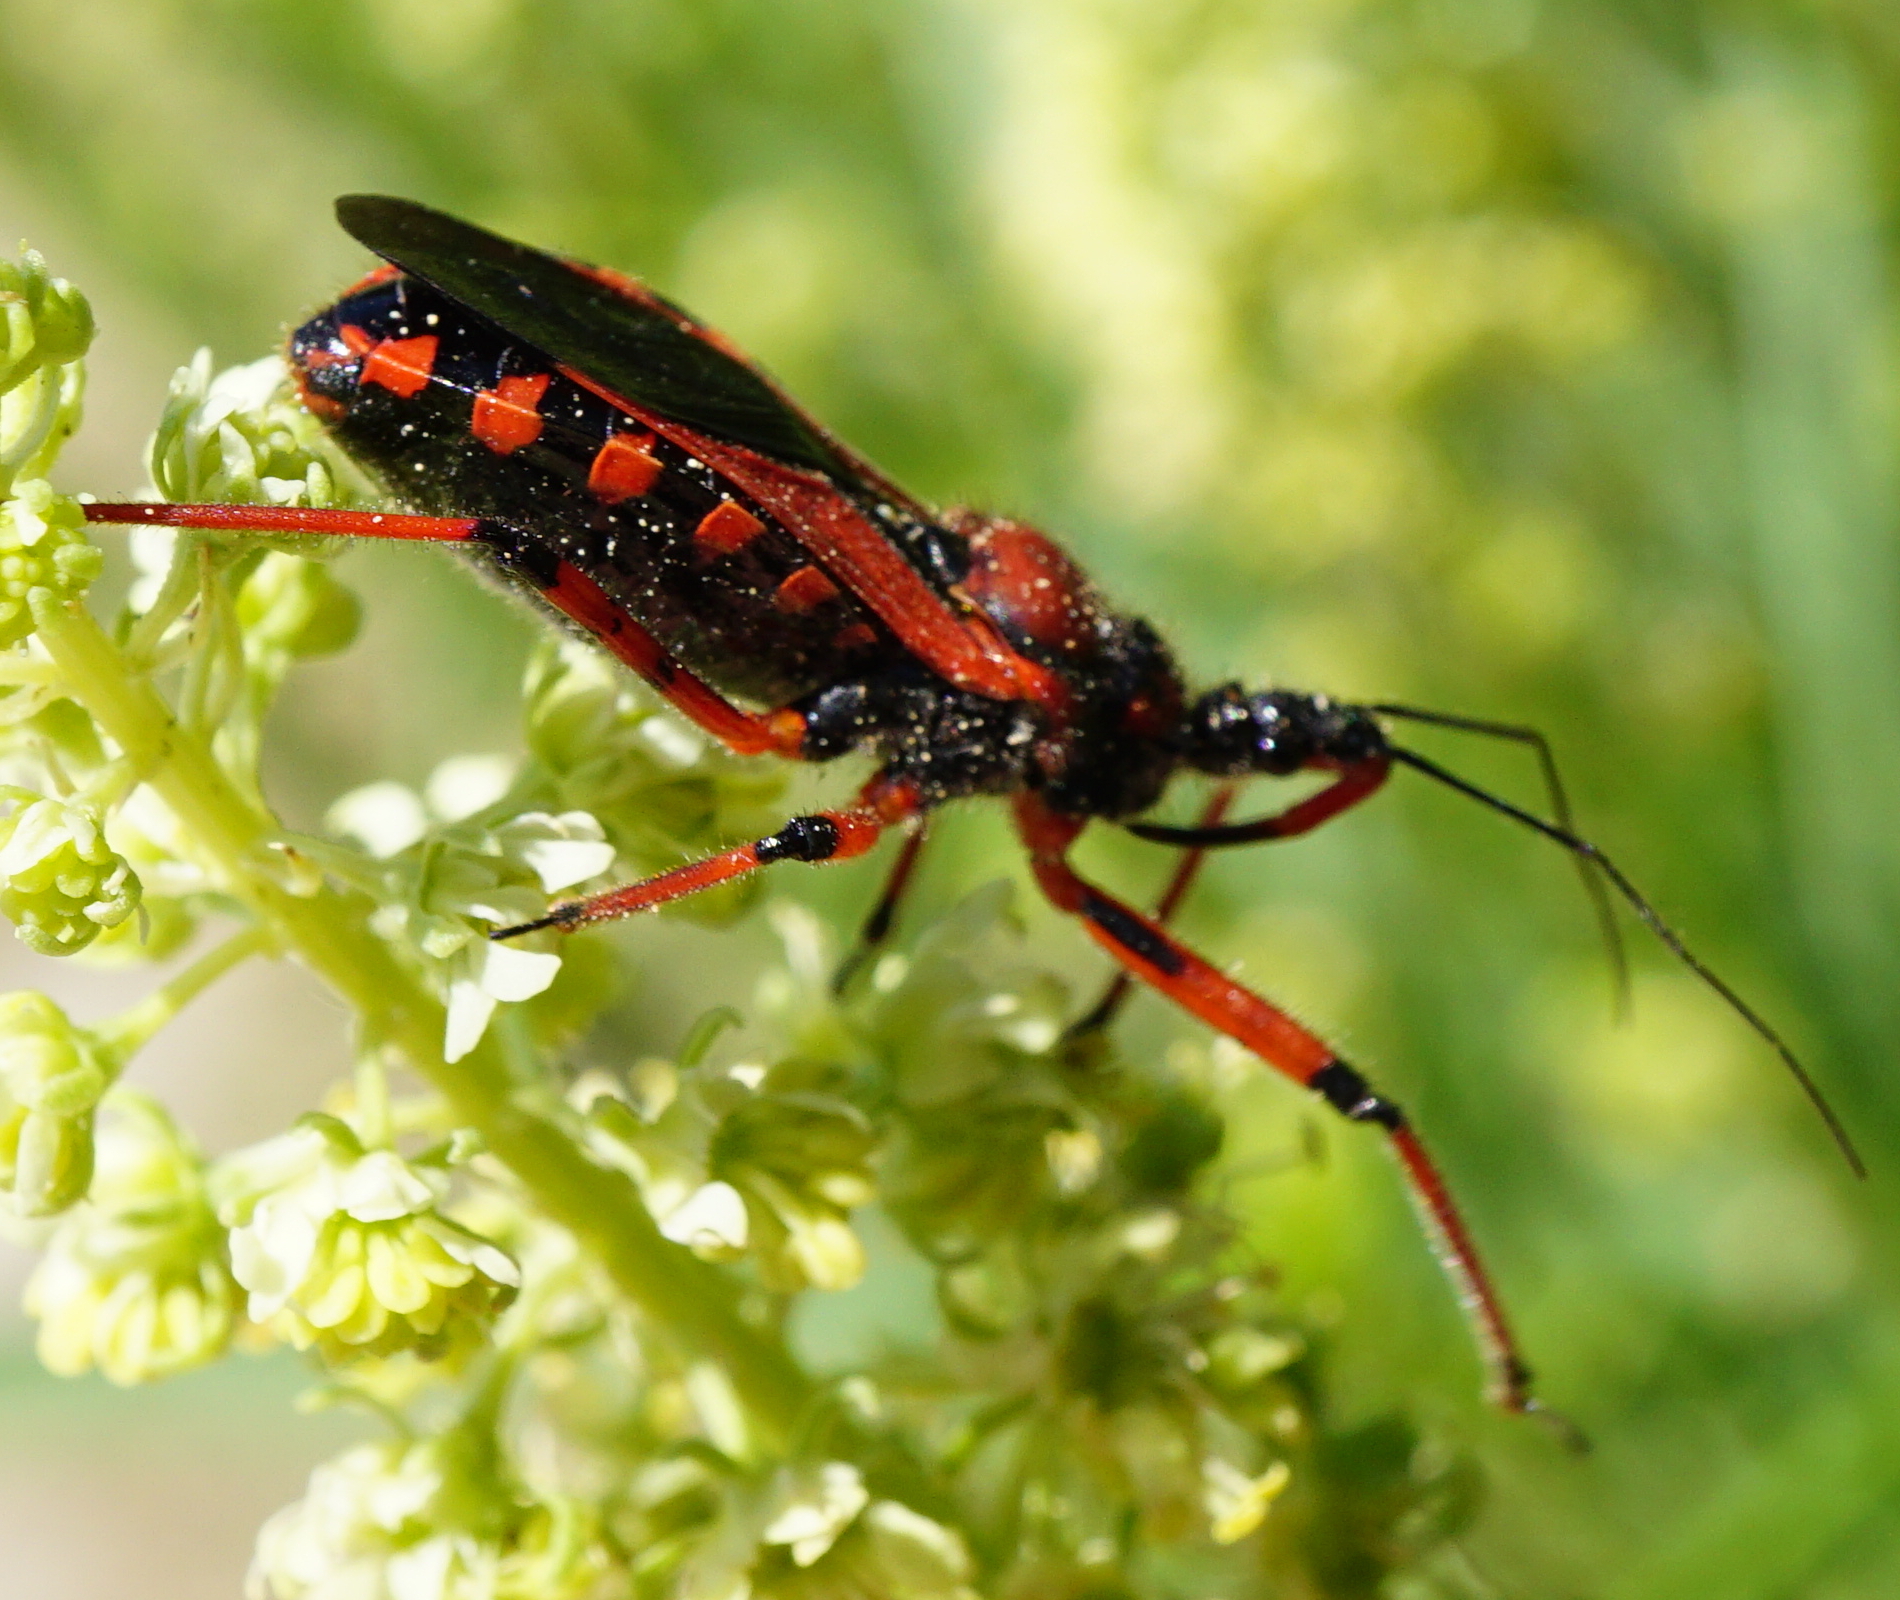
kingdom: Animalia
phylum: Arthropoda
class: Insecta
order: Hemiptera
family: Reduviidae
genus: Rhynocoris
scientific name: Rhynocoris iracundus
